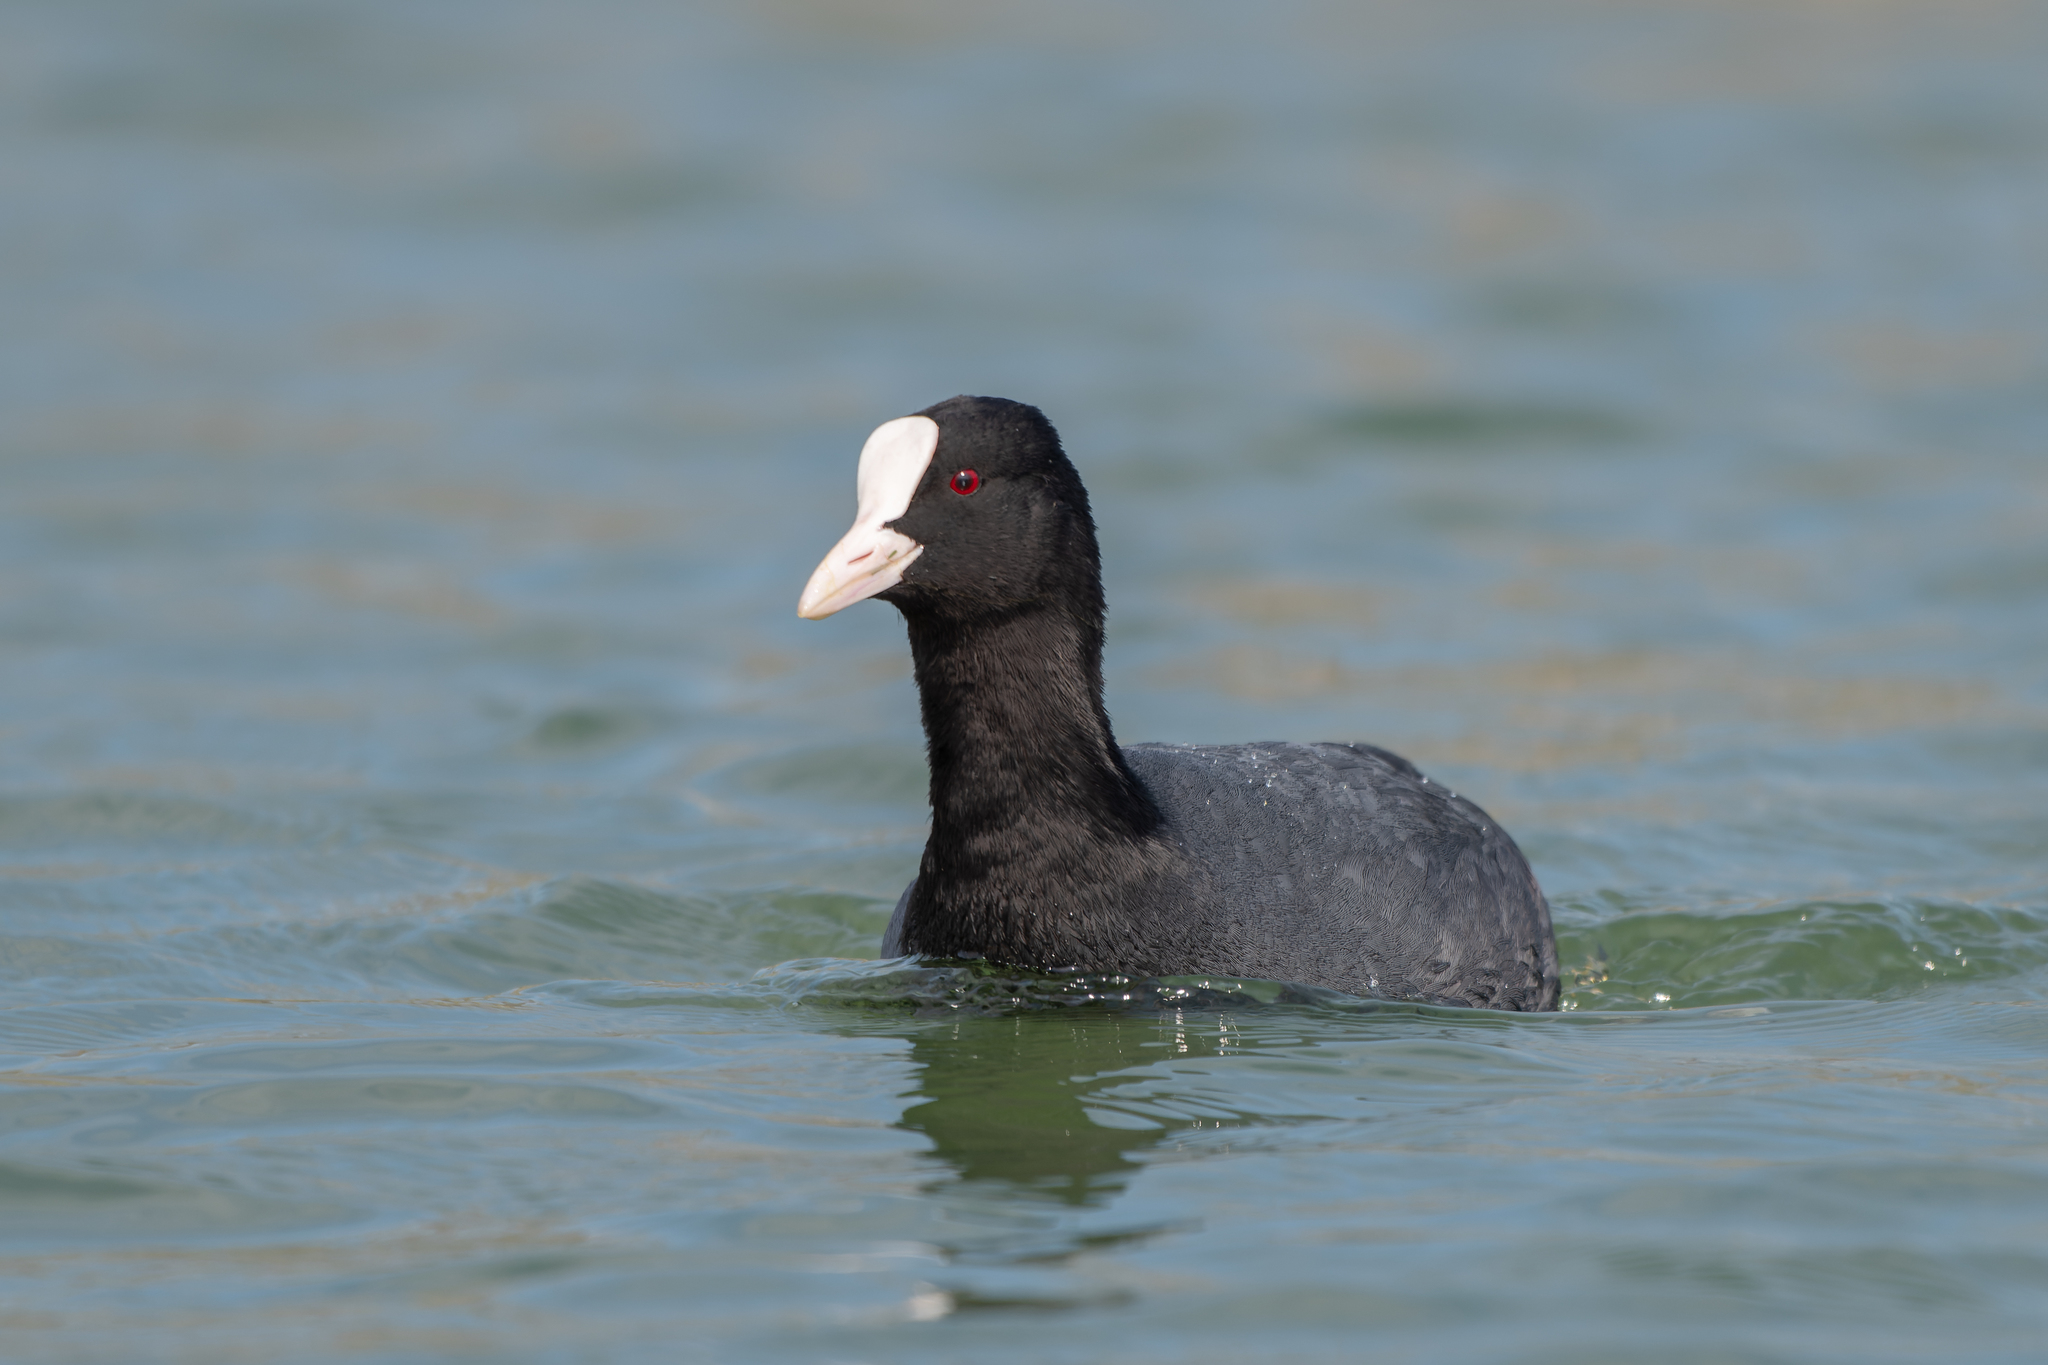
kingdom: Animalia
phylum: Chordata
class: Aves
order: Gruiformes
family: Rallidae
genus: Fulica
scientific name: Fulica atra
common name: Eurasian coot
